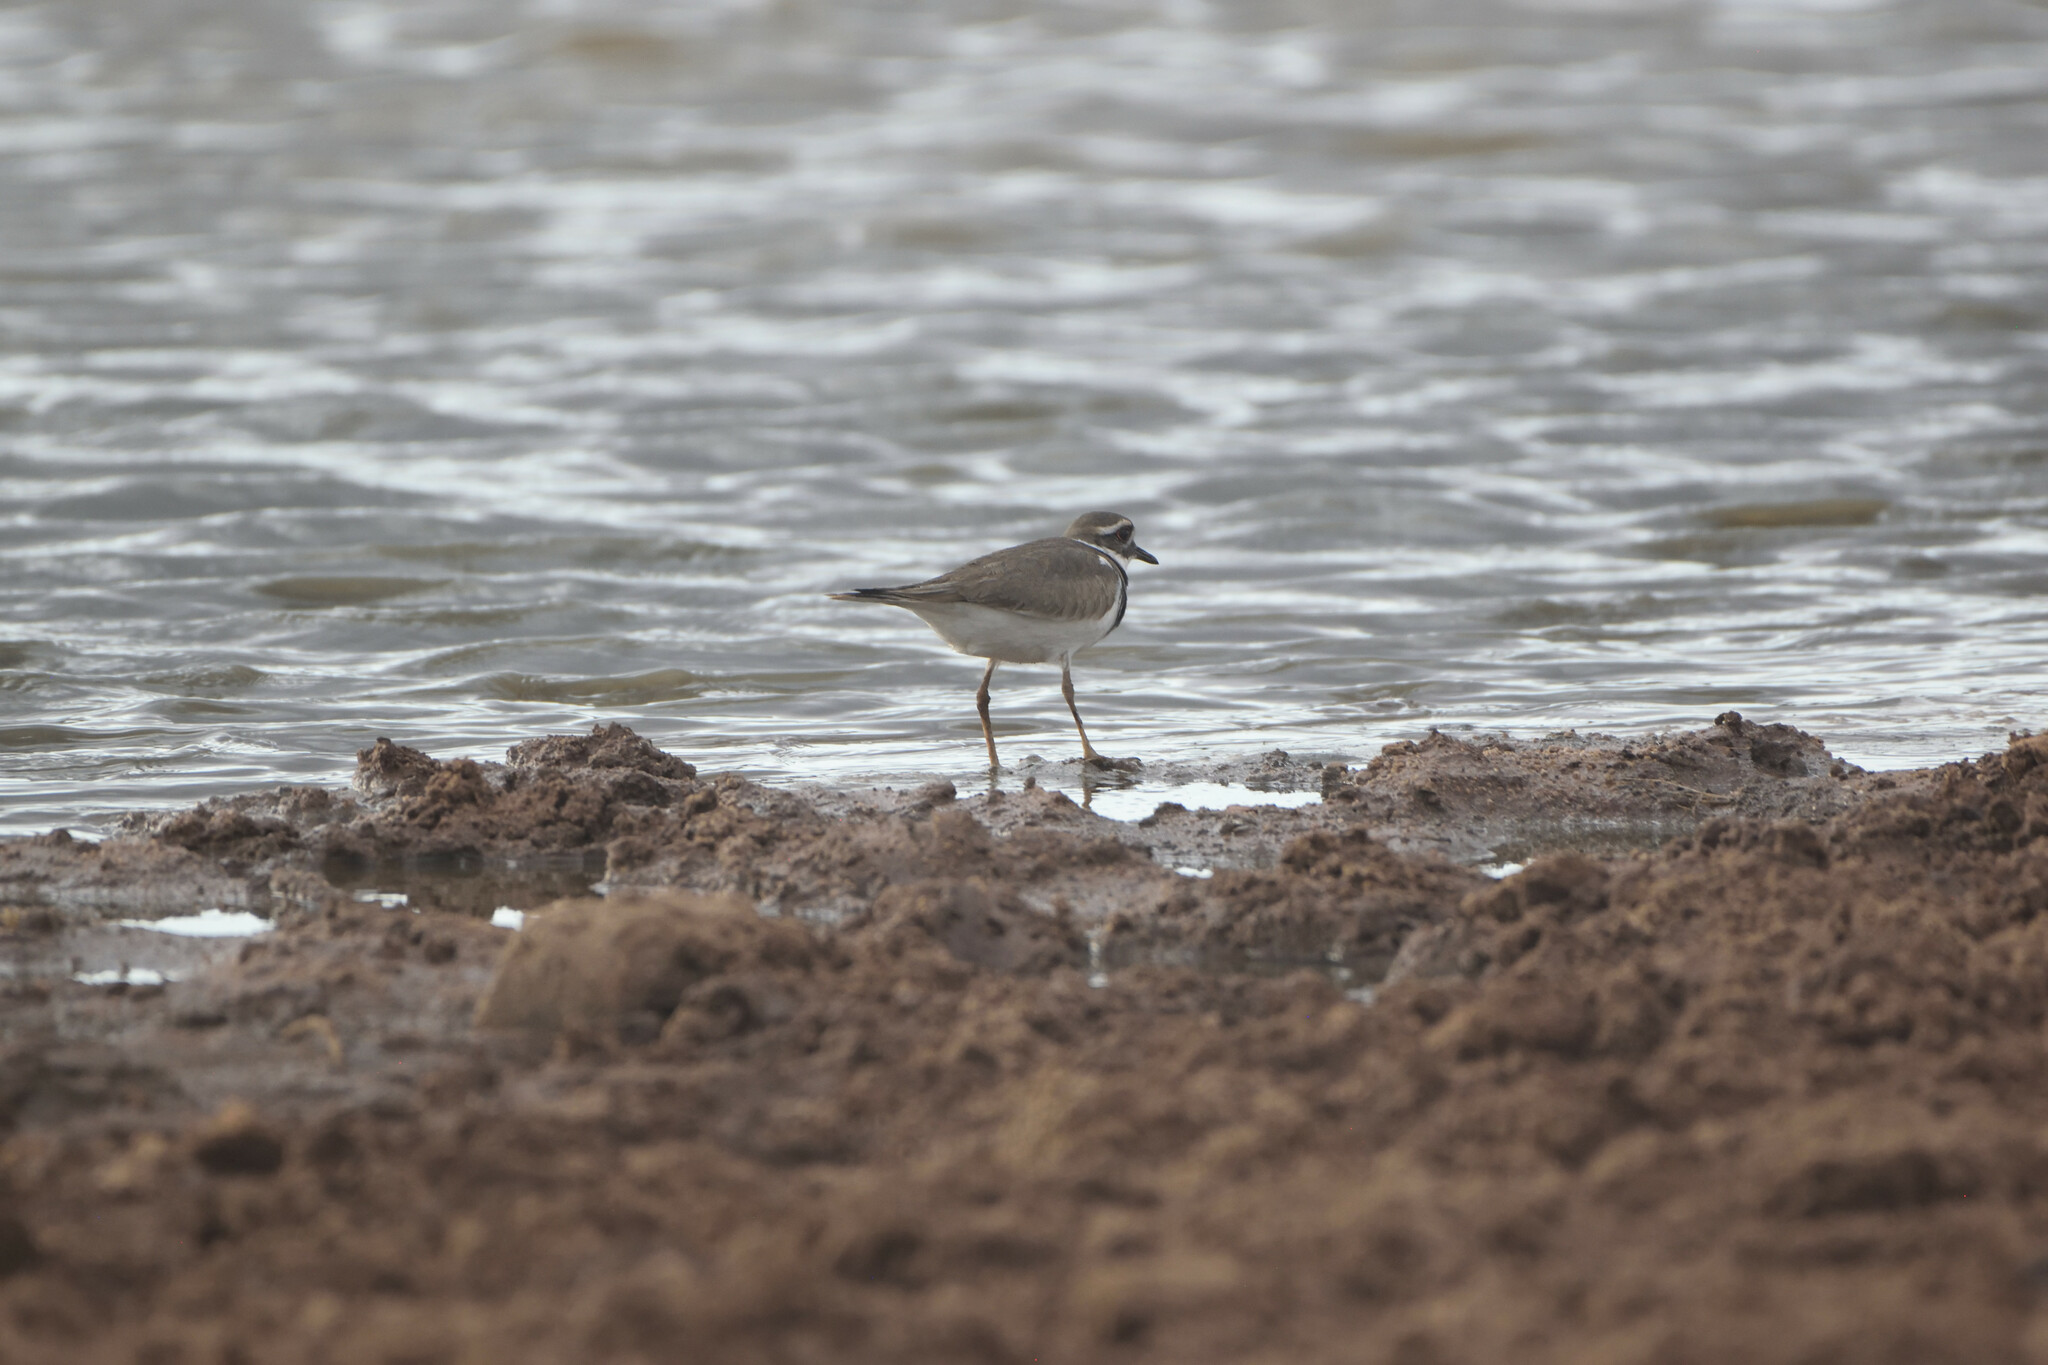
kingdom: Animalia
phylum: Chordata
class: Aves
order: Charadriiformes
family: Charadriidae
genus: Charadrius
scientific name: Charadrius vociferus
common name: Killdeer
